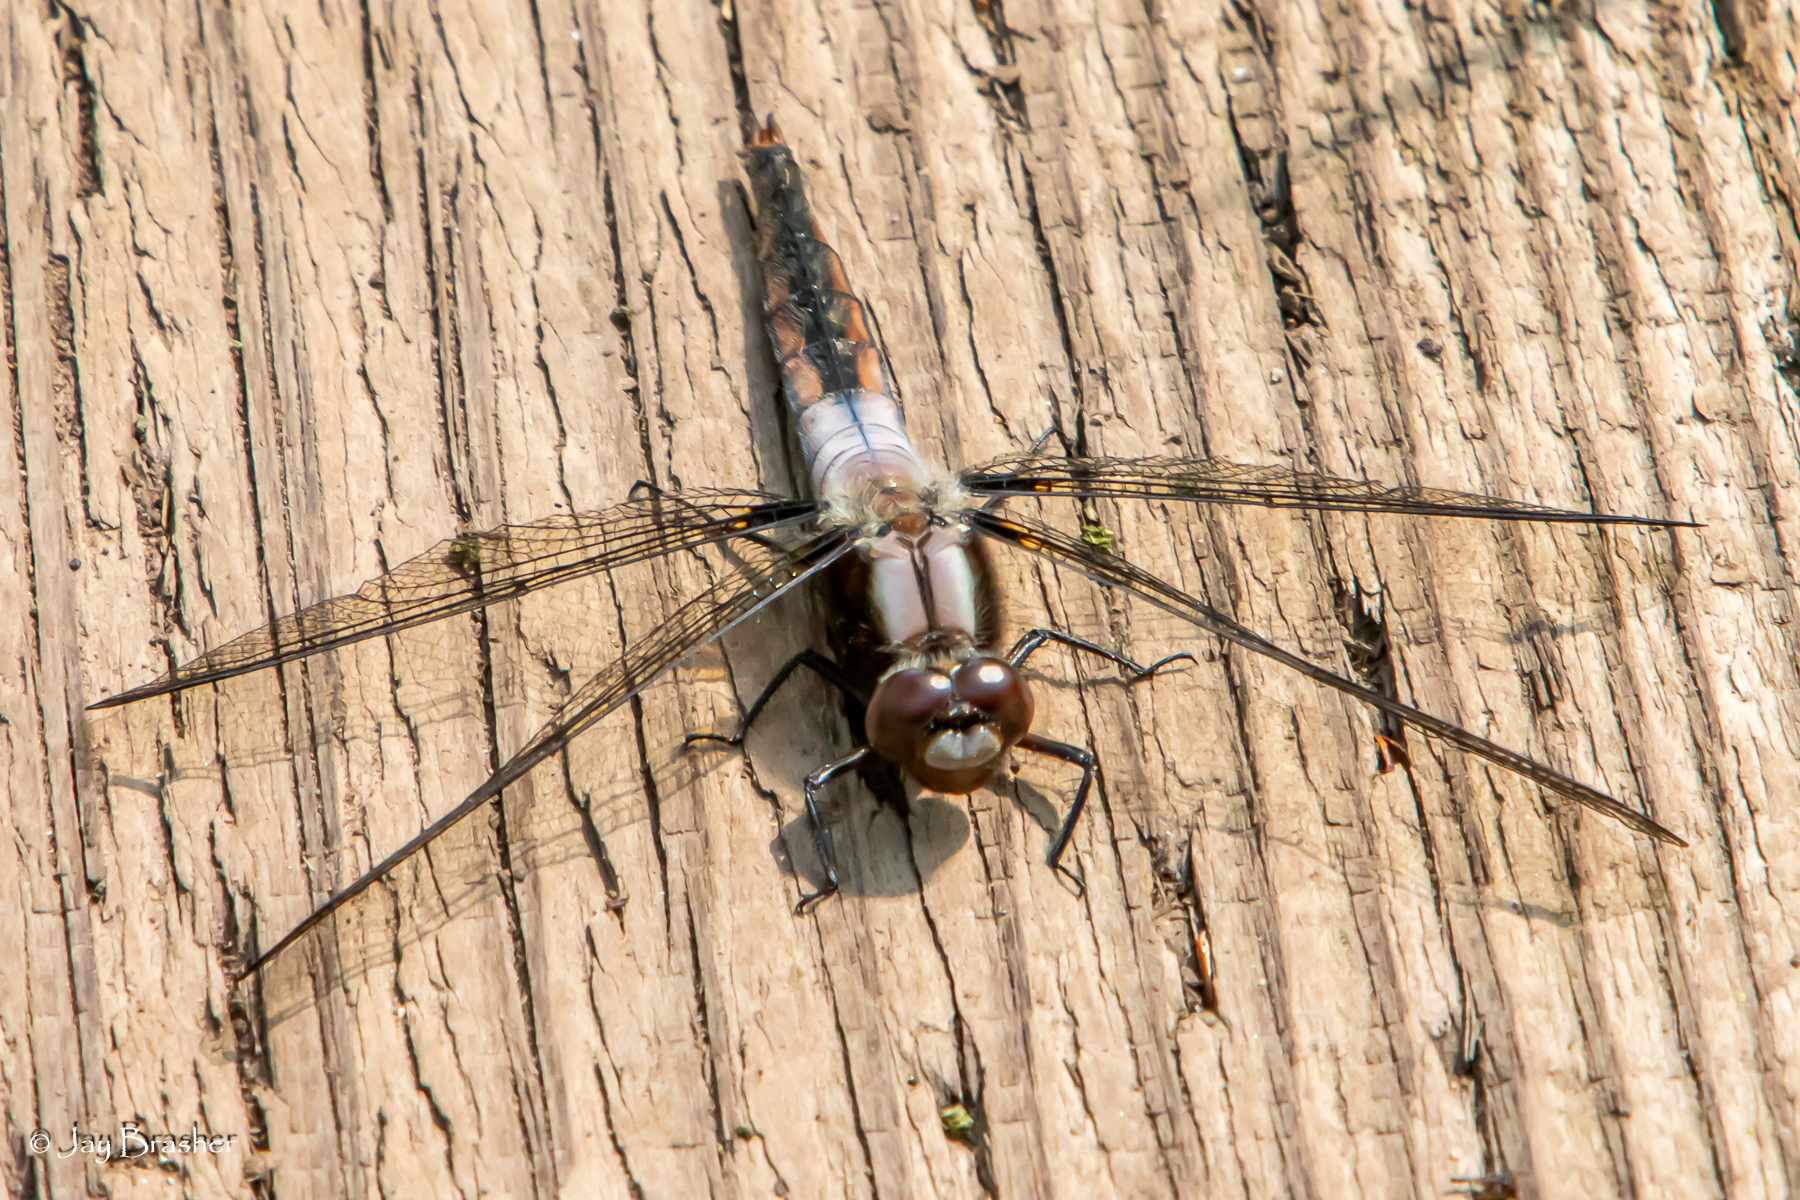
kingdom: Animalia
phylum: Arthropoda
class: Insecta
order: Odonata
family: Libellulidae
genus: Ladona
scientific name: Ladona julia
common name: Chalk-fronted corporal
